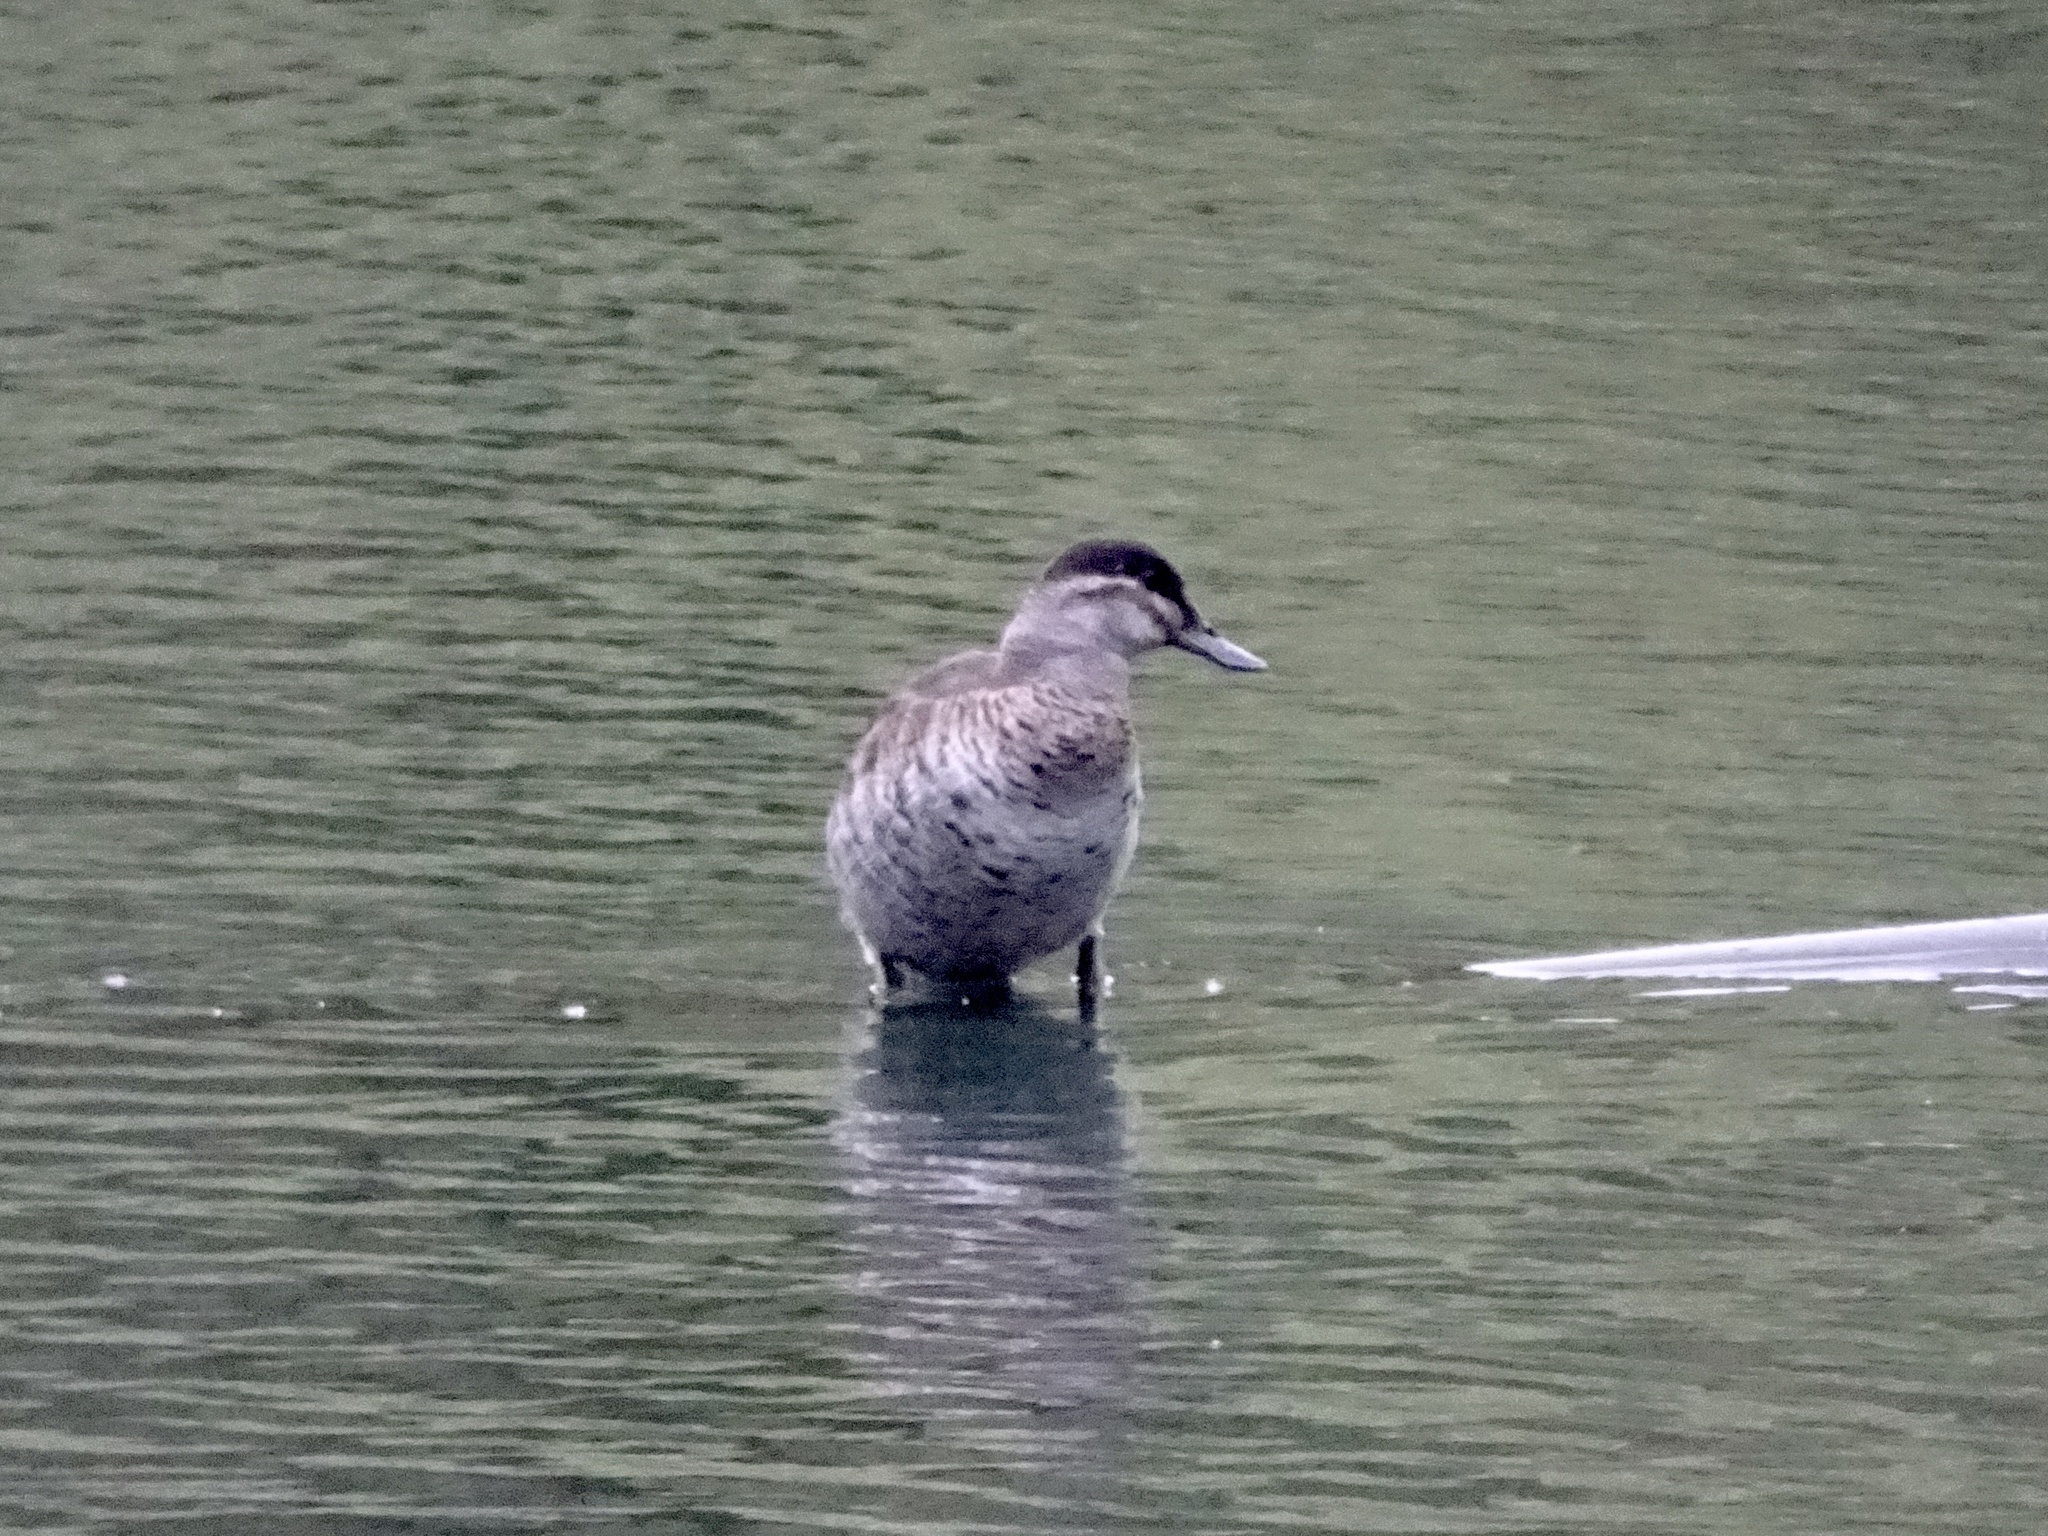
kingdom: Animalia
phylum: Chordata
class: Aves
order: Anseriformes
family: Anatidae
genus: Oxyura
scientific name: Oxyura jamaicensis
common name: Ruddy duck
